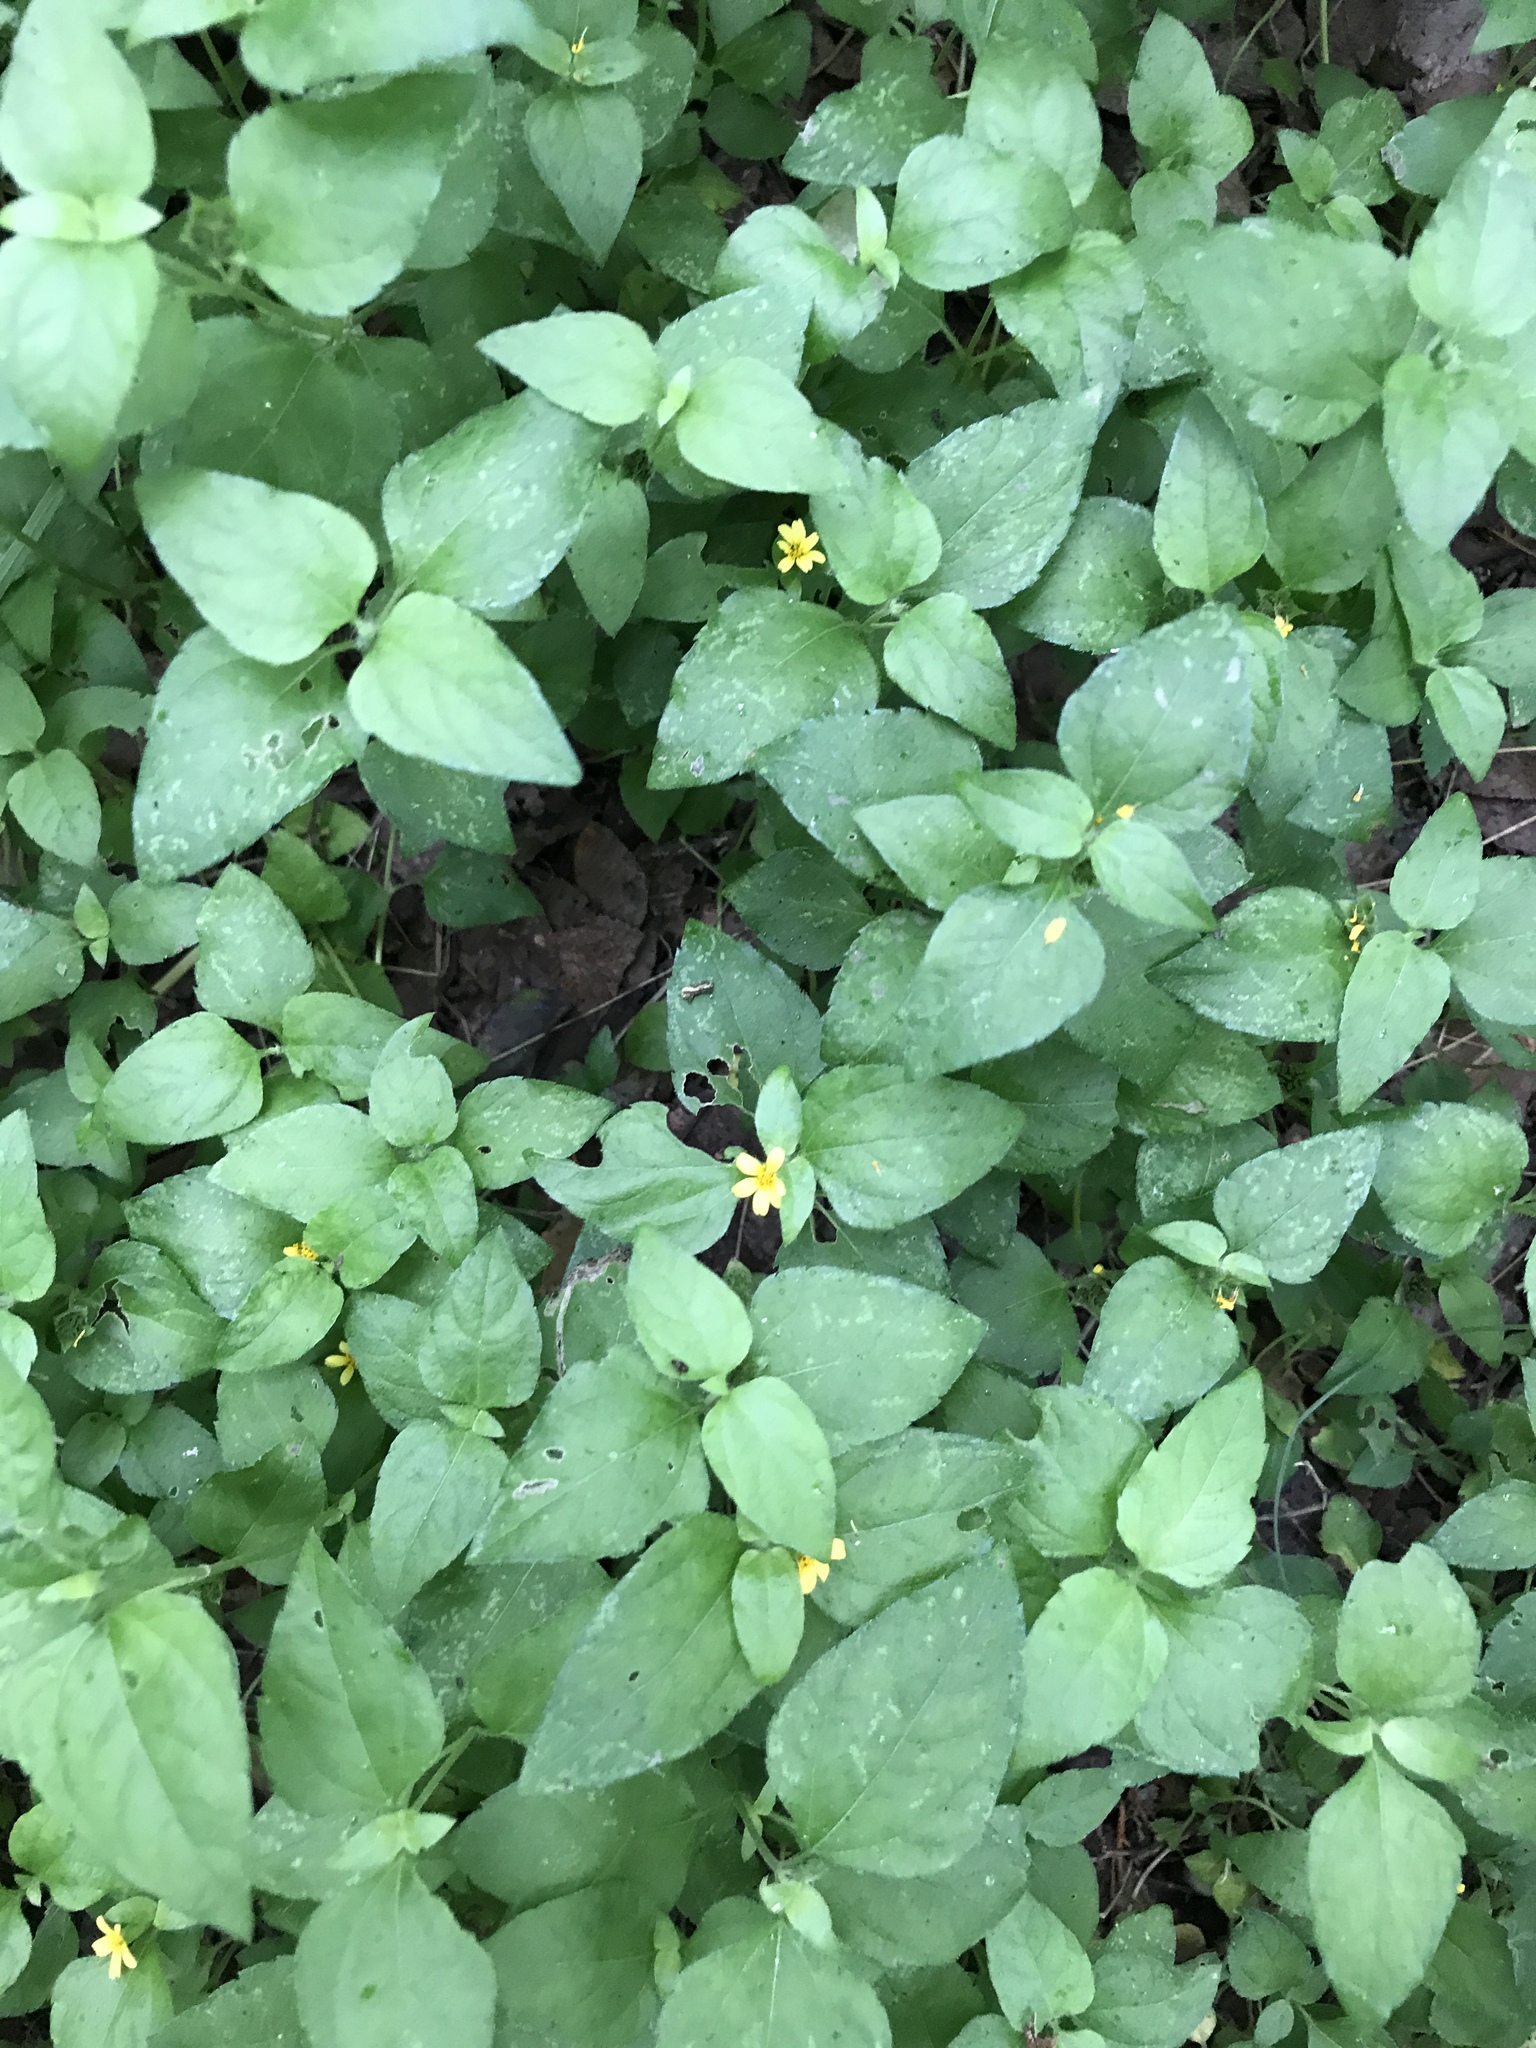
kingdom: Plantae
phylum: Tracheophyta
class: Magnoliopsida
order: Asterales
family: Asteraceae
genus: Calyptocarpus
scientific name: Calyptocarpus vialis
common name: Straggler daisy
